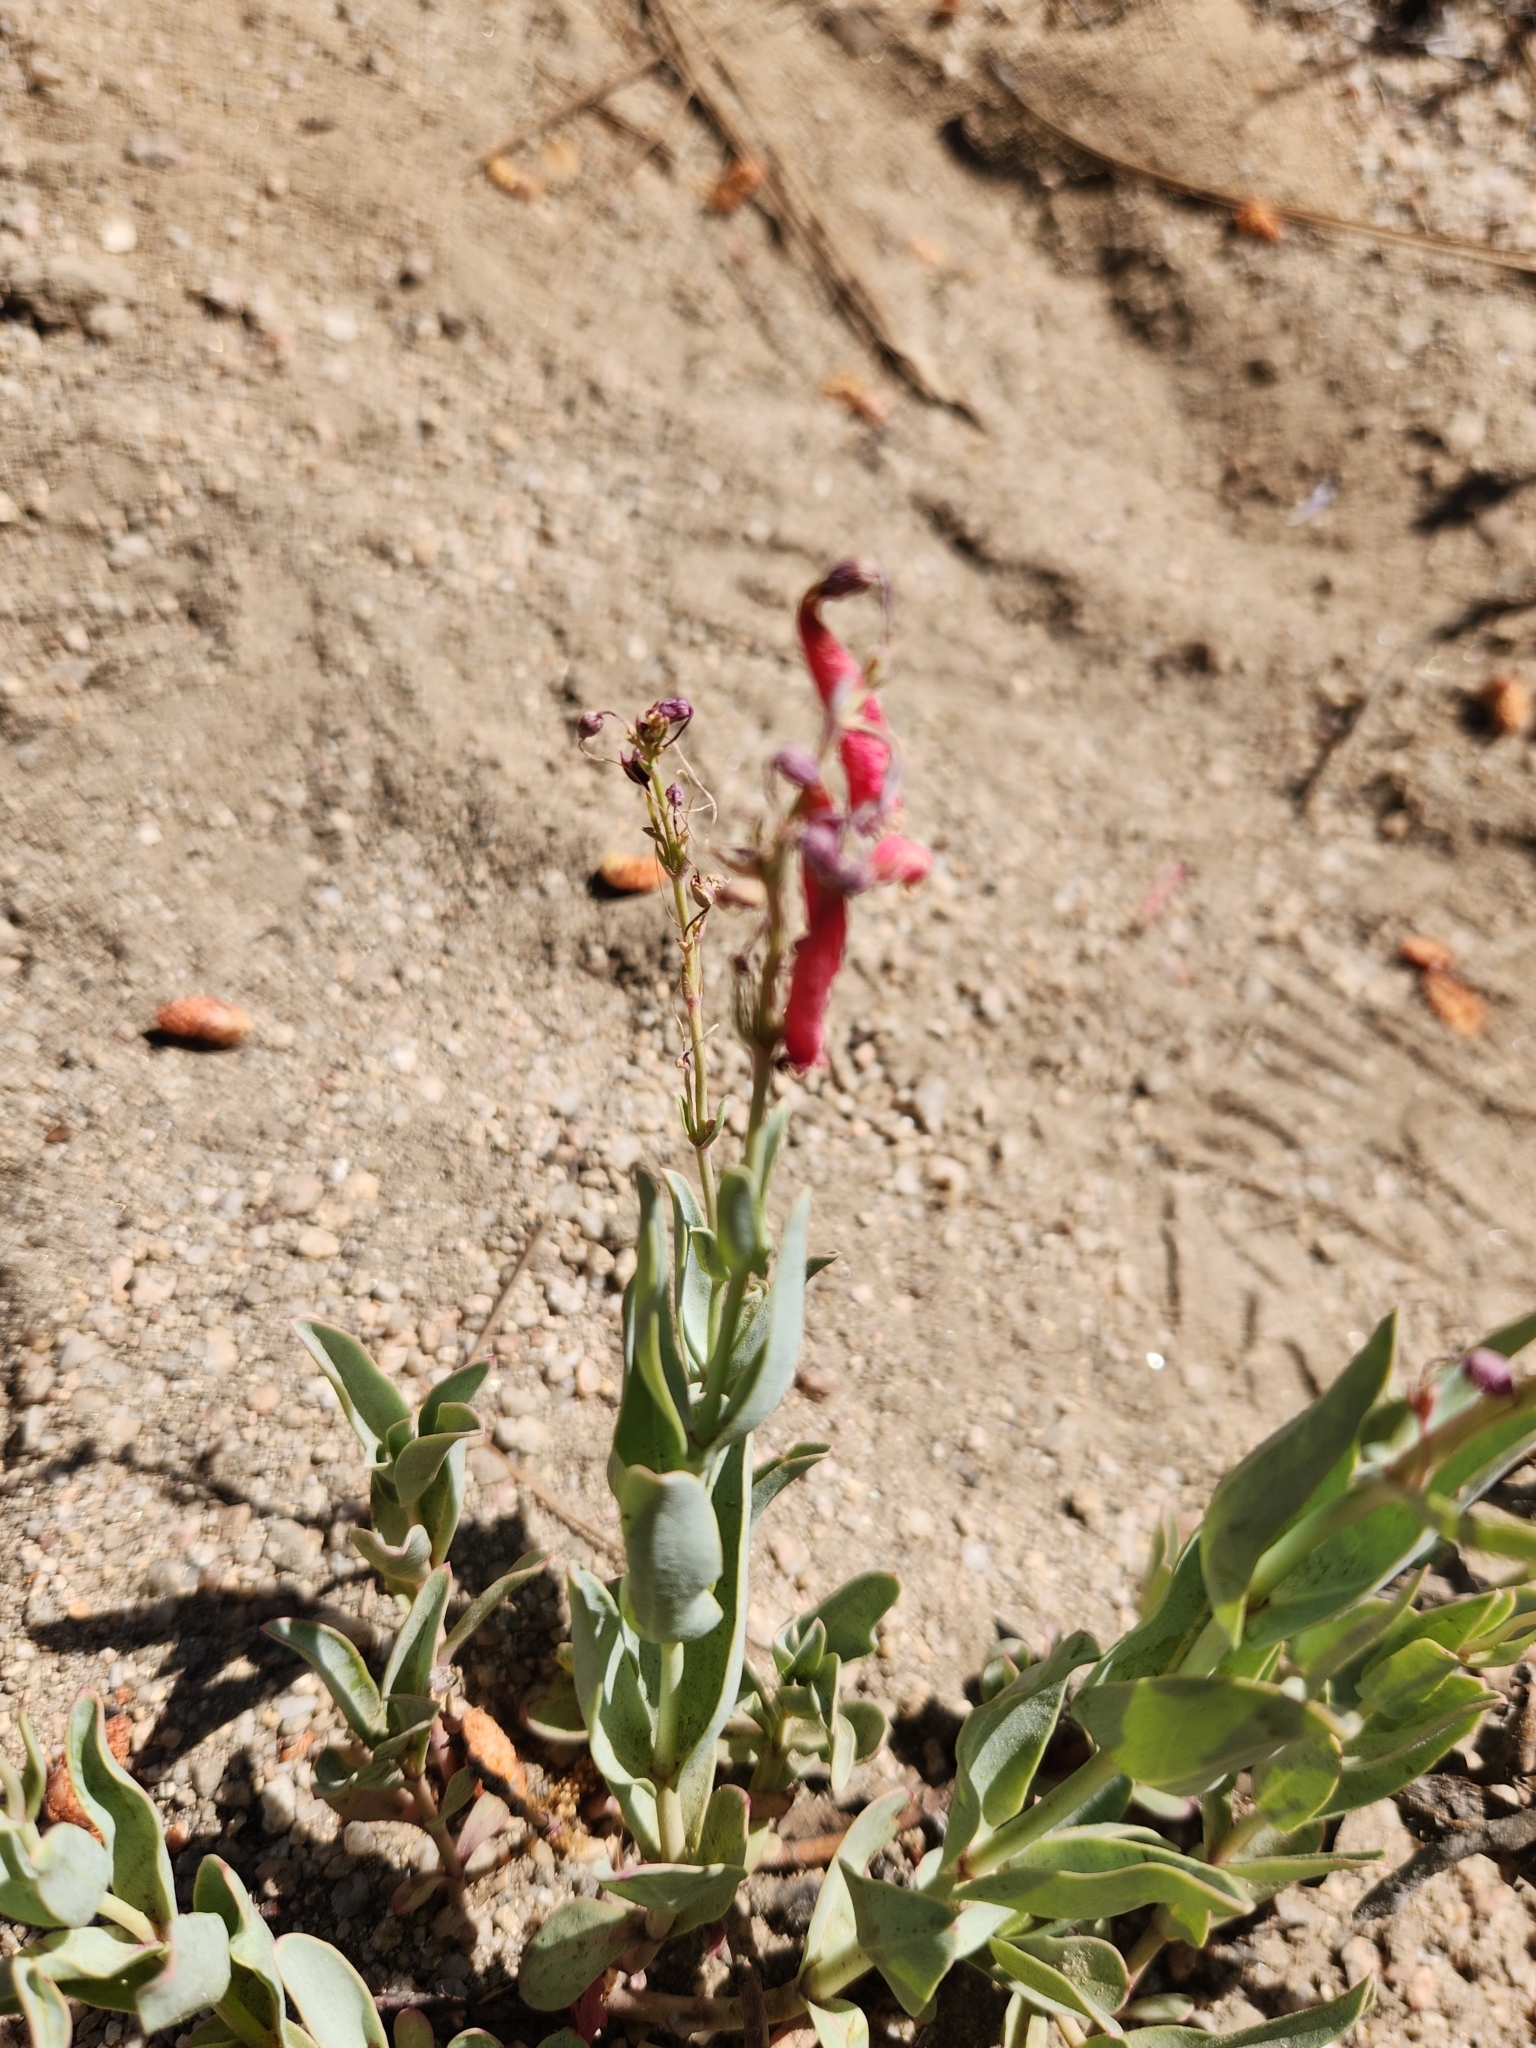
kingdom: Plantae
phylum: Tracheophyta
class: Magnoliopsida
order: Lamiales
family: Plantaginaceae
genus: Penstemon
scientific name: Penstemon centranthifolius
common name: Scarlet bugler
